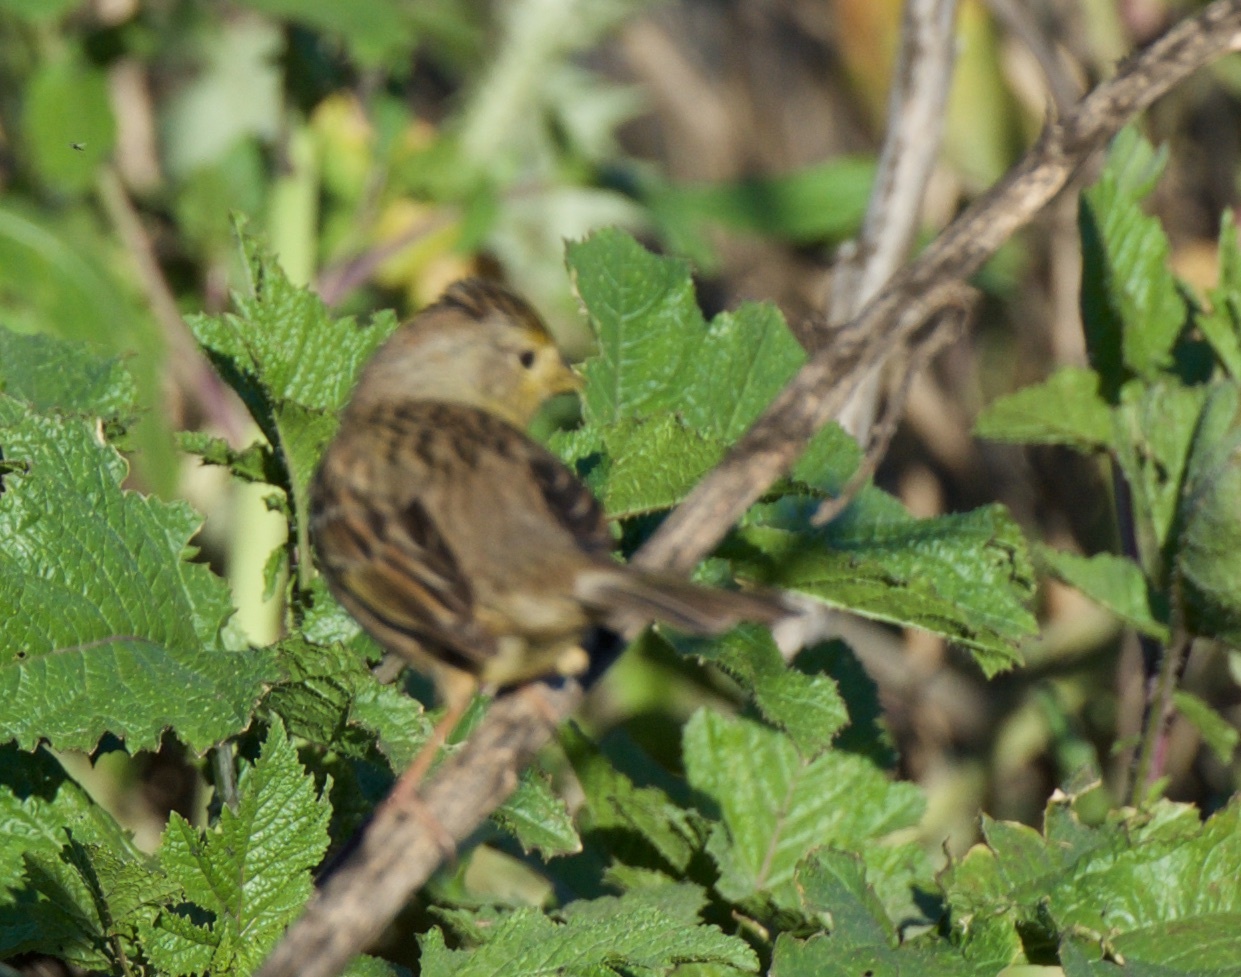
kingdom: Animalia
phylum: Chordata
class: Aves
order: Passeriformes
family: Passerellidae
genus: Zonotrichia
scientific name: Zonotrichia atricapilla
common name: Golden-crowned sparrow
